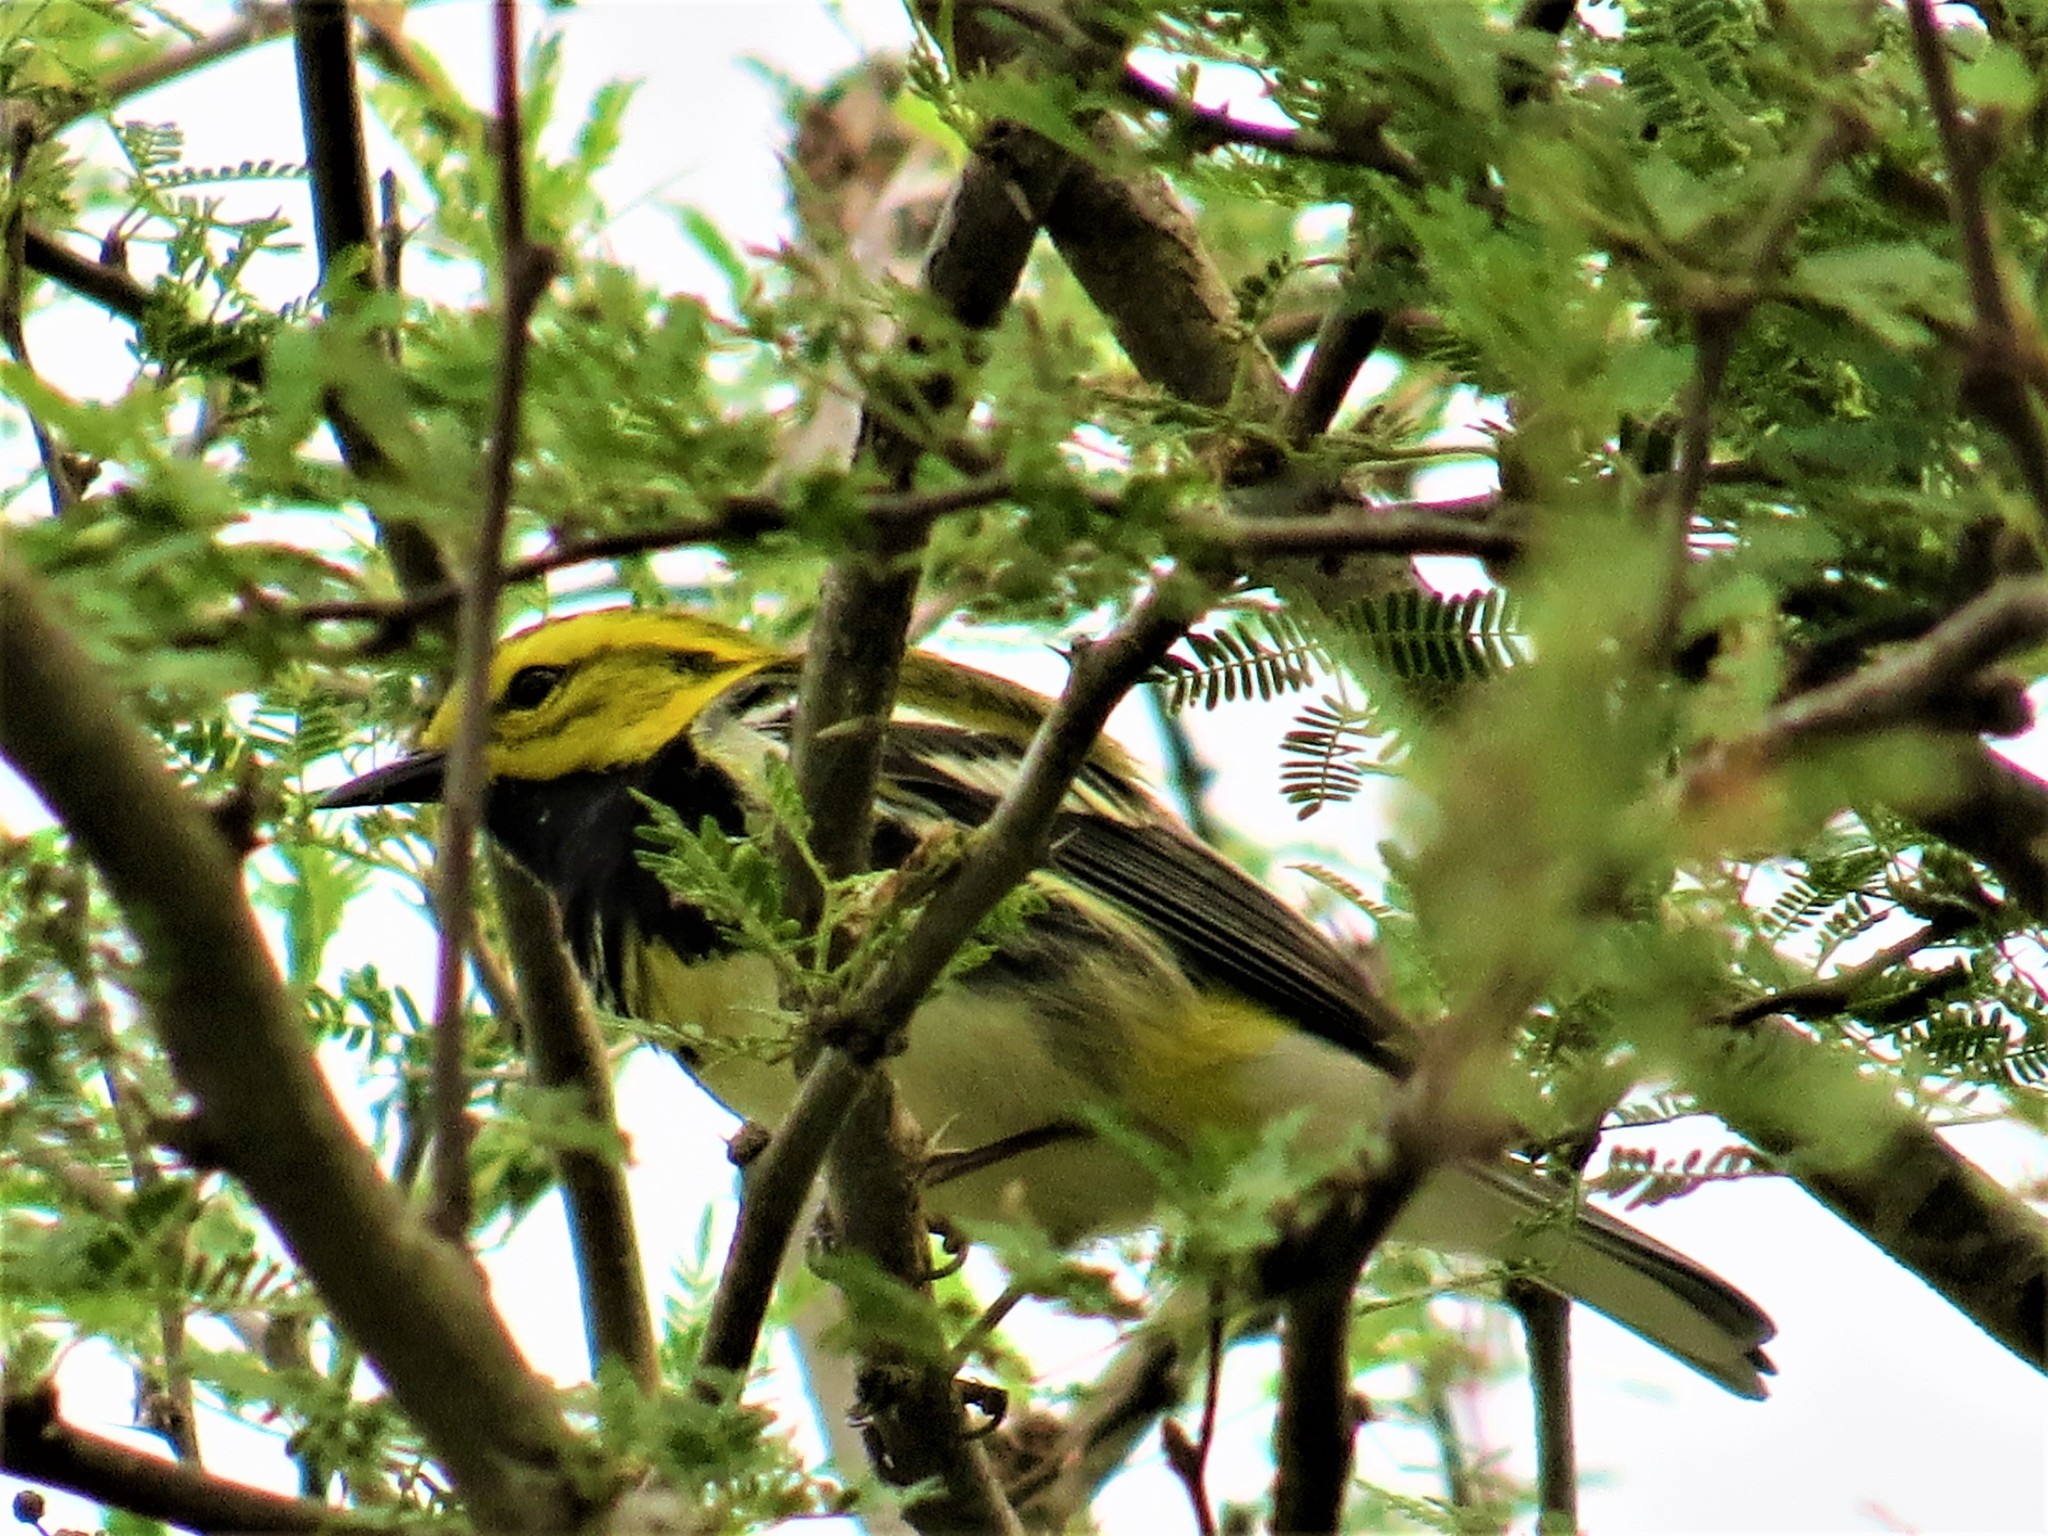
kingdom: Animalia
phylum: Chordata
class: Aves
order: Passeriformes
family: Parulidae
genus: Setophaga
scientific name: Setophaga virens
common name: Black-throated green warbler
